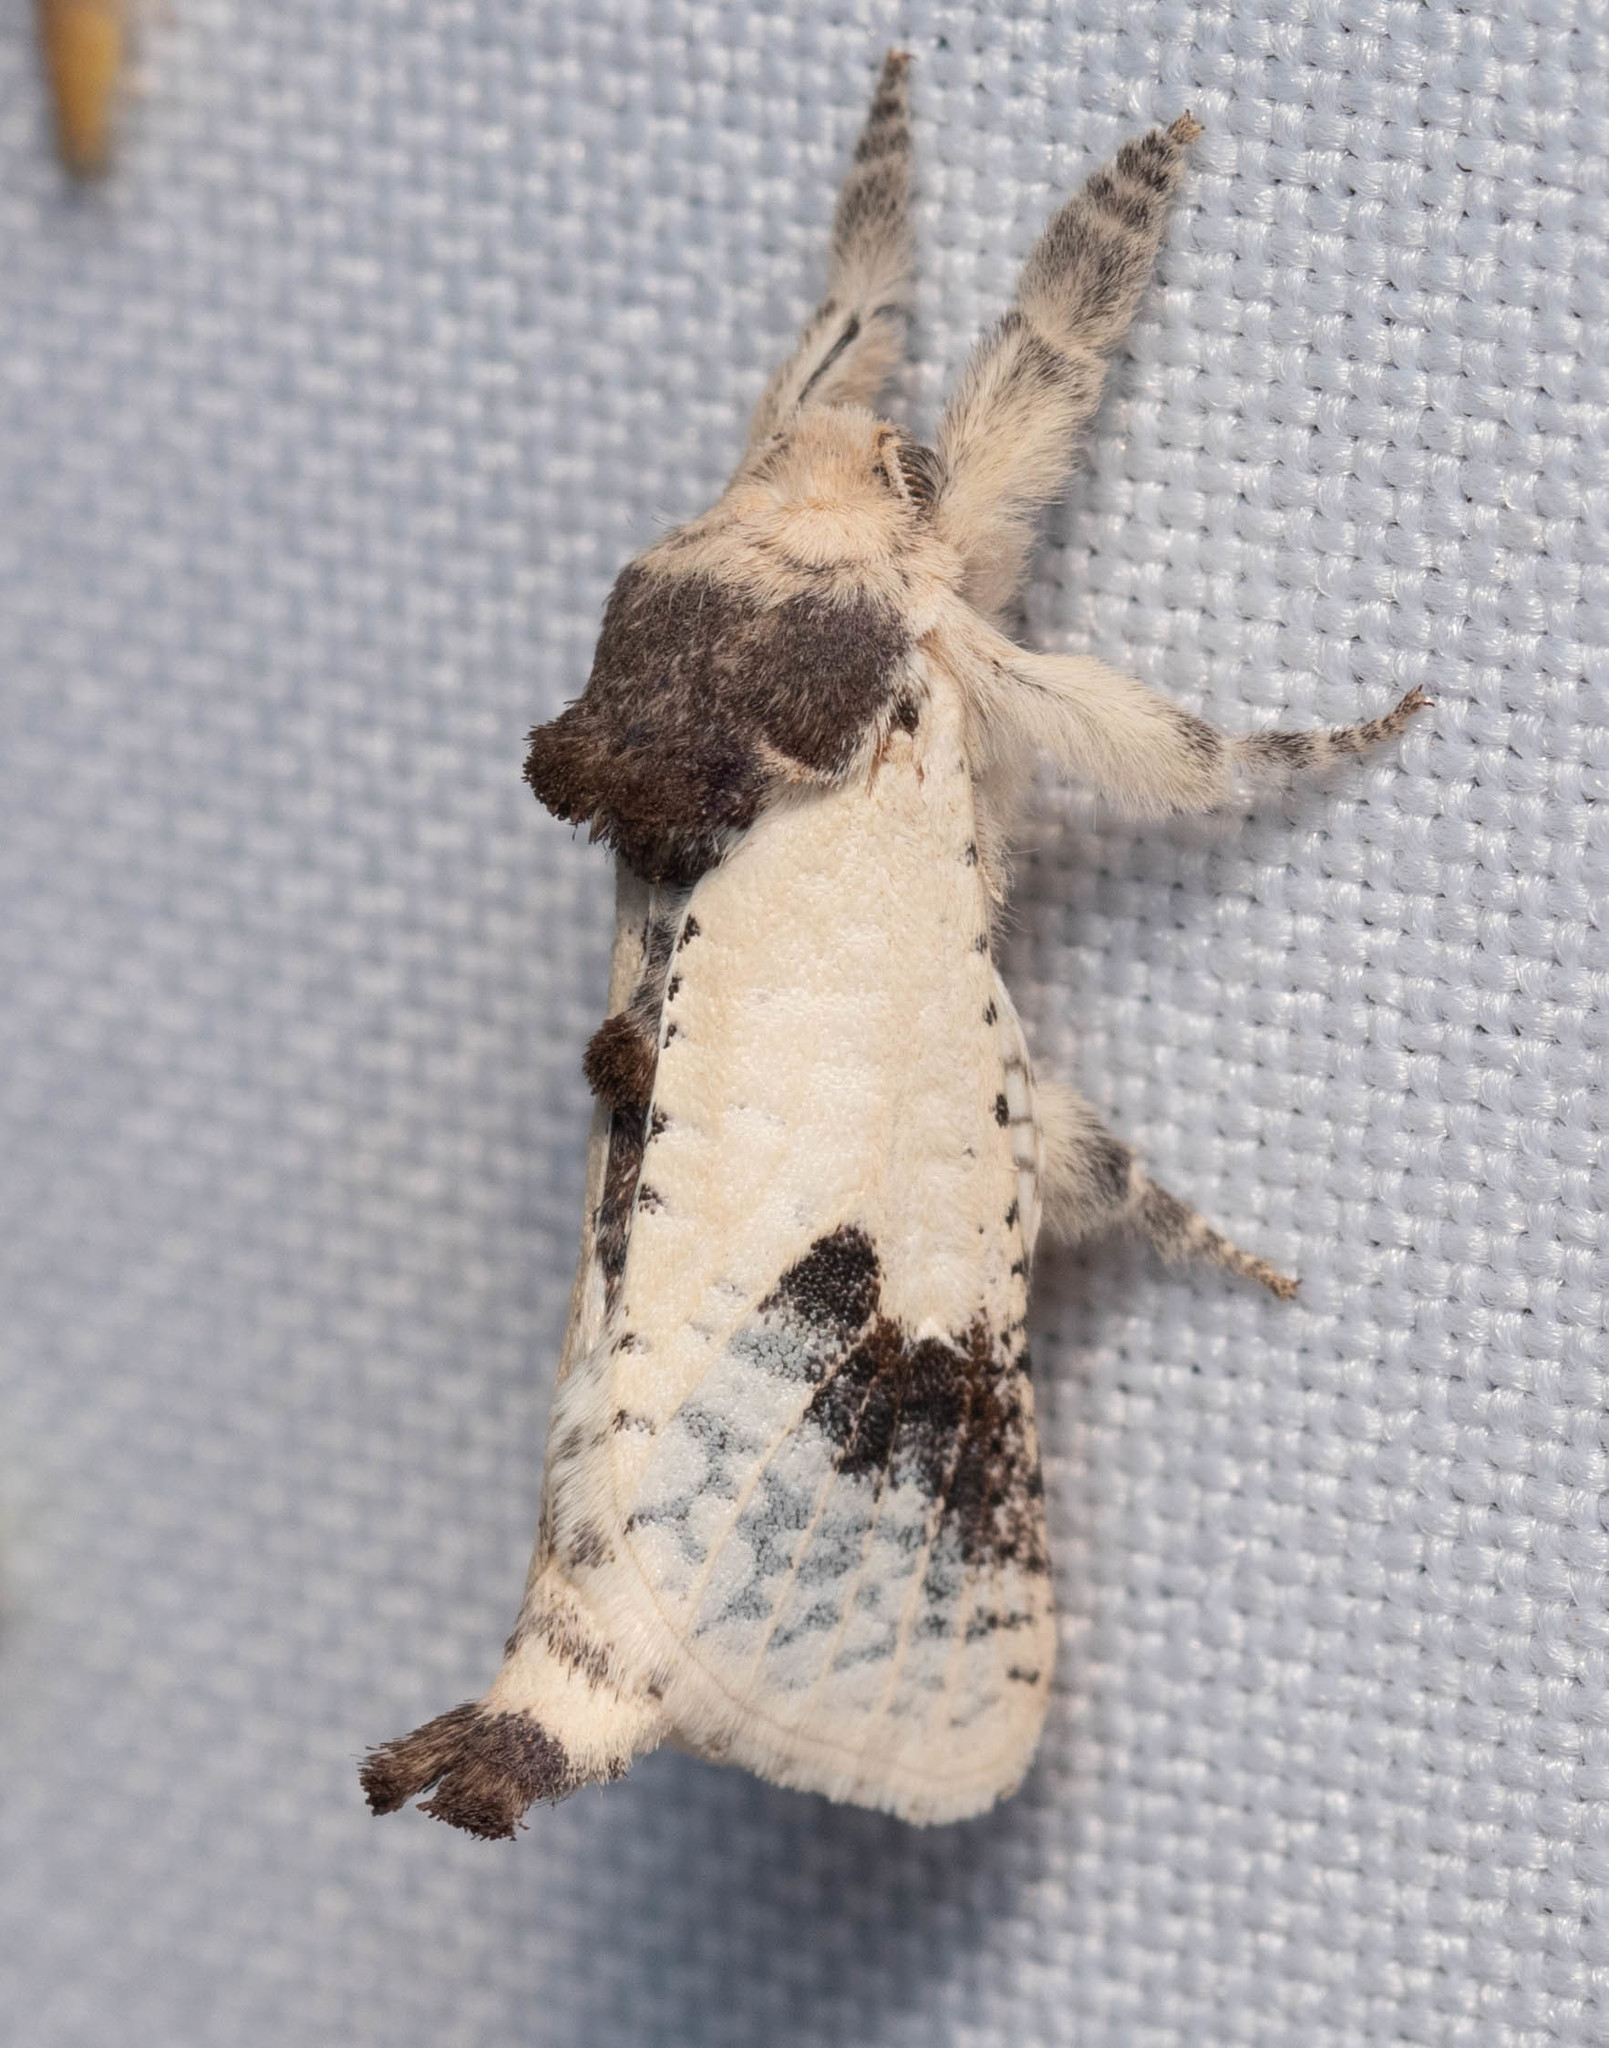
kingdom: Animalia
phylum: Arthropoda
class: Insecta
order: Lepidoptera
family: Cossidae
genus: Givira
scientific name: Givira theodori
